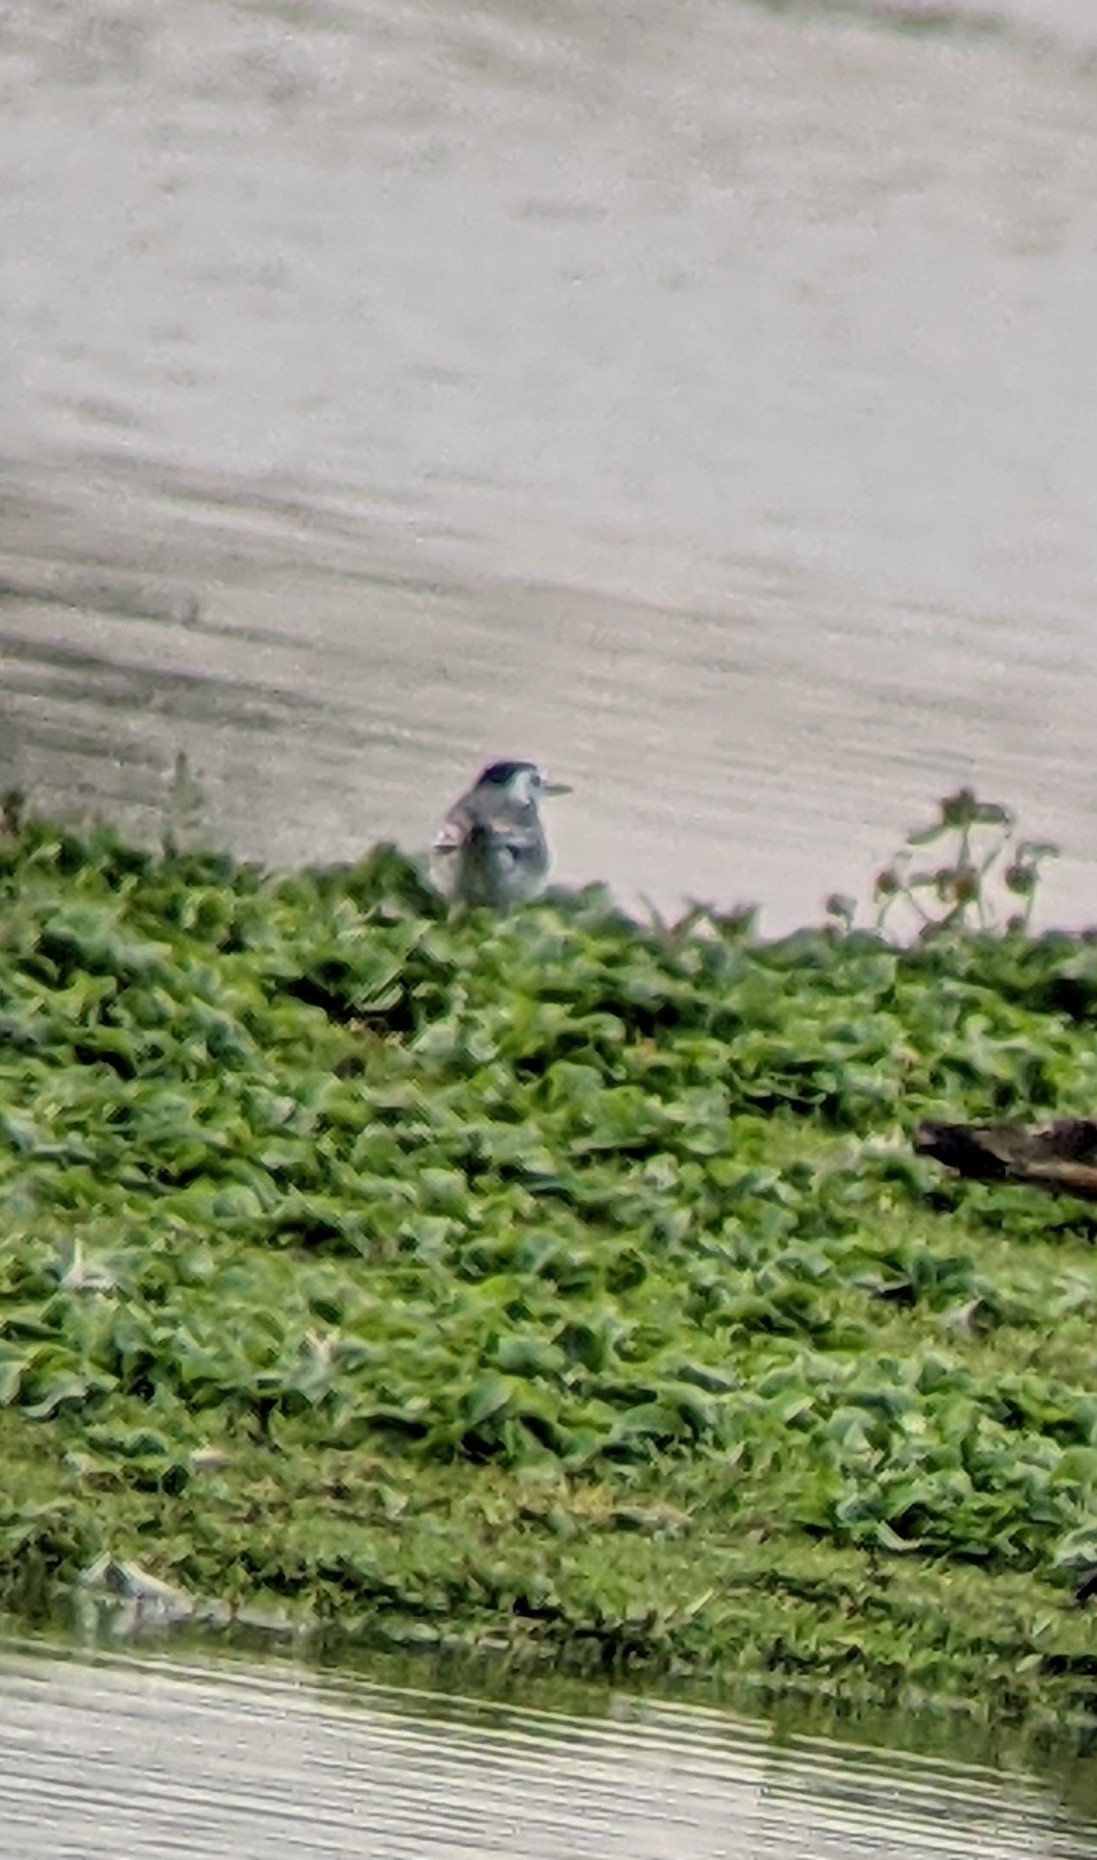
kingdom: Animalia
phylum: Chordata
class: Aves
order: Passeriformes
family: Motacillidae
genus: Motacilla
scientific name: Motacilla alba
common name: White wagtail
